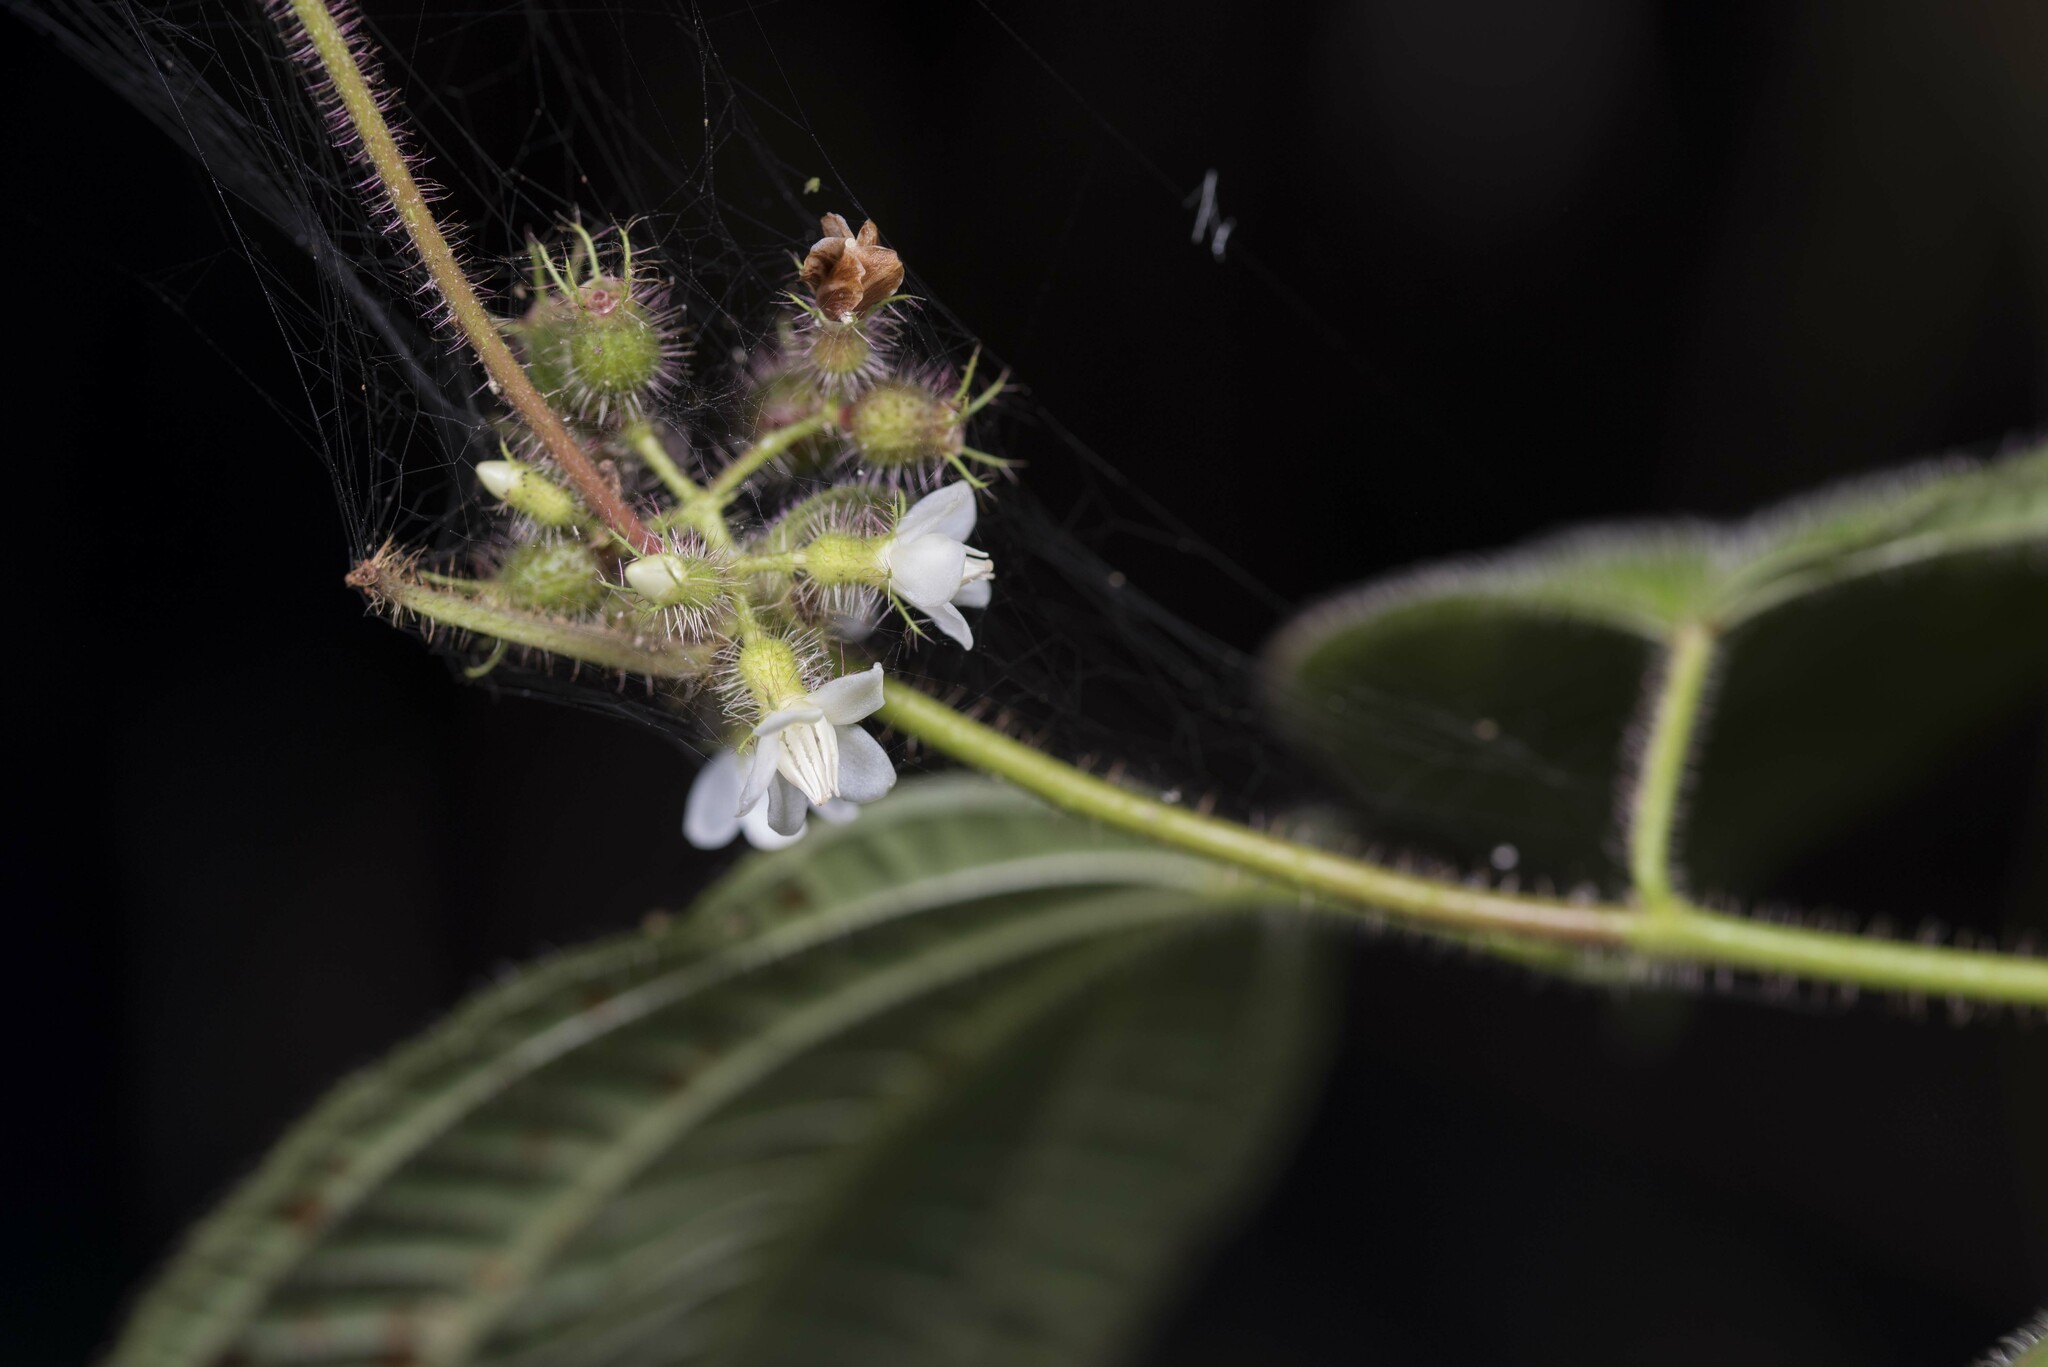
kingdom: Plantae
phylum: Tracheophyta
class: Magnoliopsida
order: Myrtales
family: Melastomataceae
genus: Miconia
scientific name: Miconia crenata
